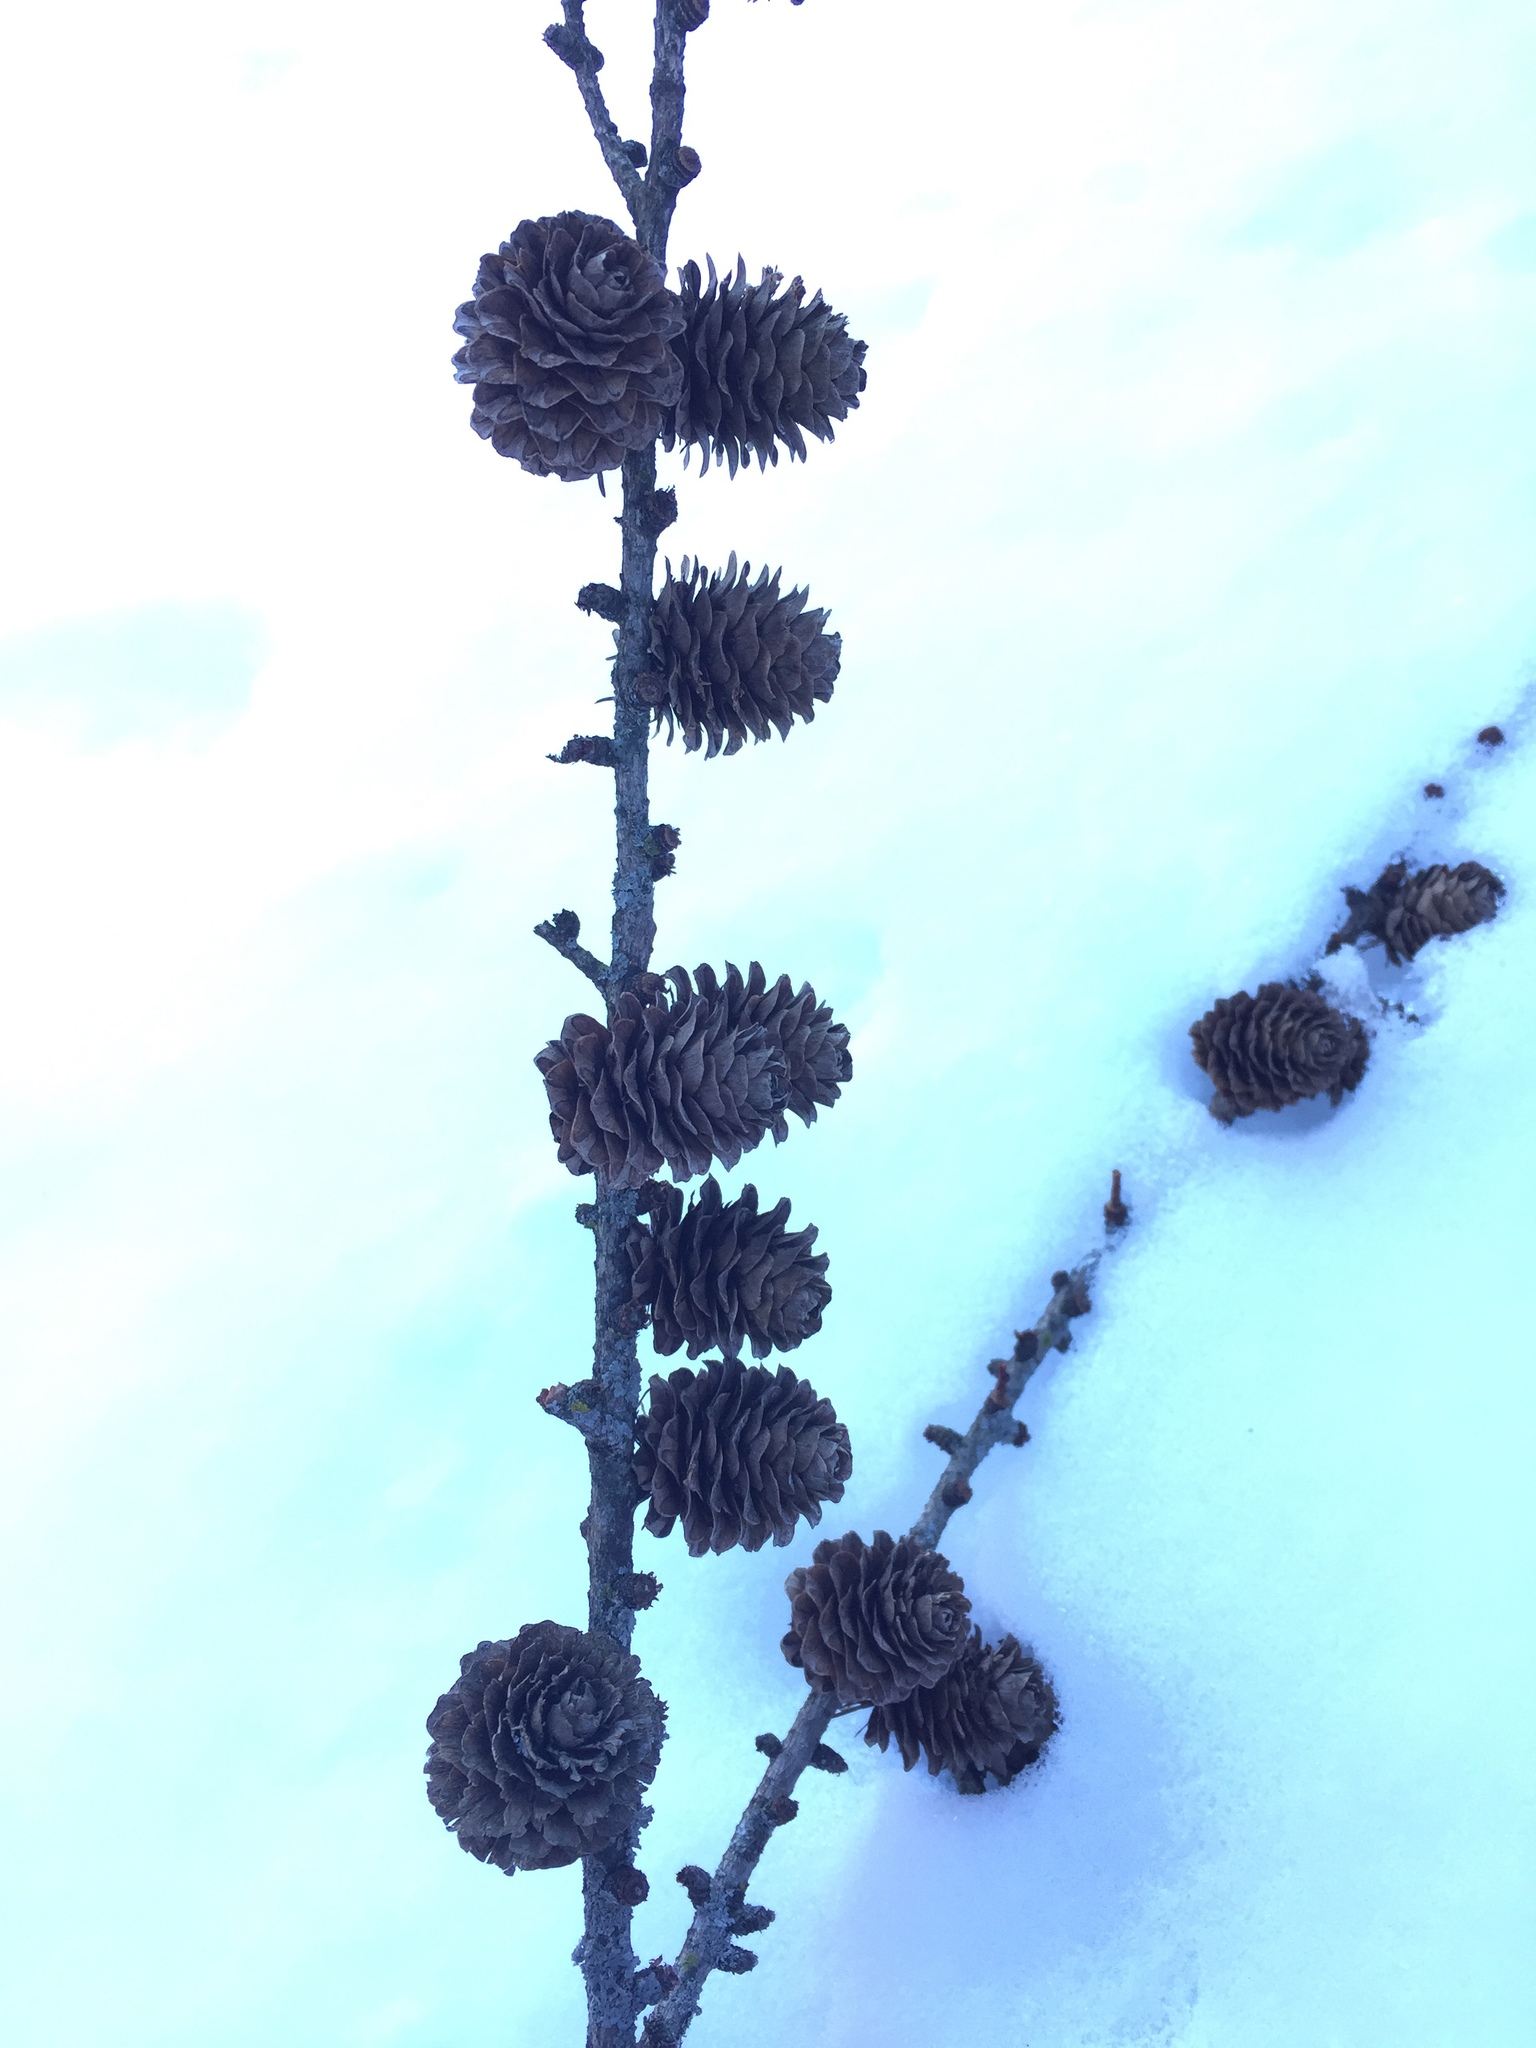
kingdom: Plantae
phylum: Tracheophyta
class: Pinopsida
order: Pinales
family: Pinaceae
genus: Larix
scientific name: Larix decidua
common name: European larch
